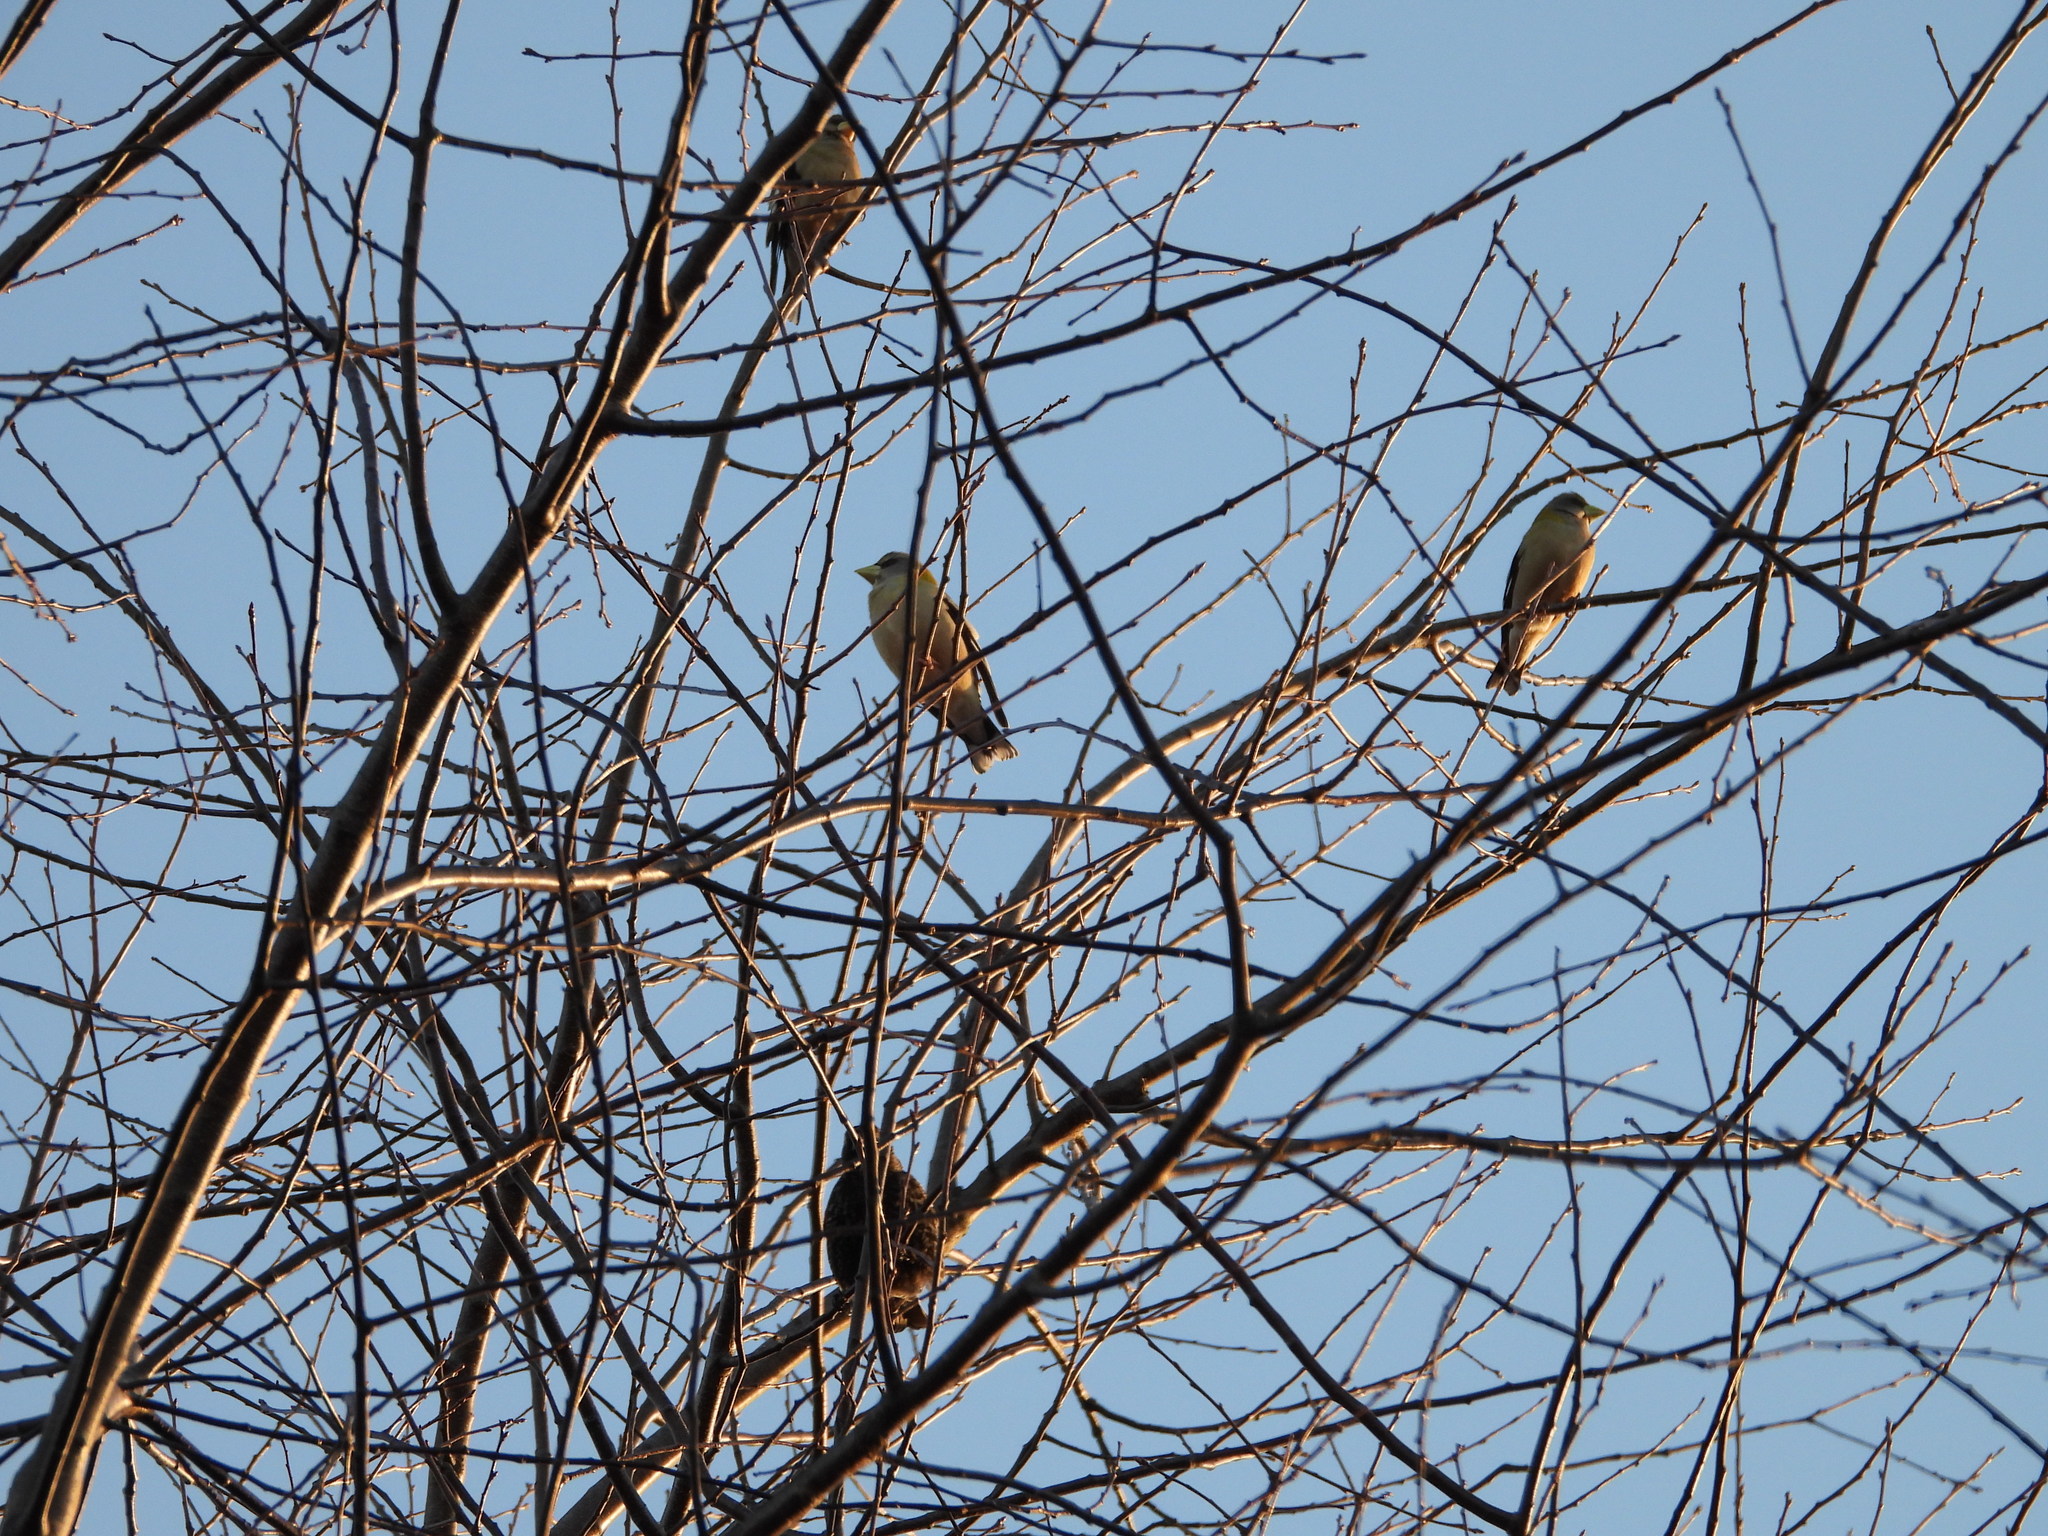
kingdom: Animalia
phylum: Chordata
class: Aves
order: Passeriformes
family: Fringillidae
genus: Hesperiphona
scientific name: Hesperiphona vespertina
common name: Evening grosbeak
